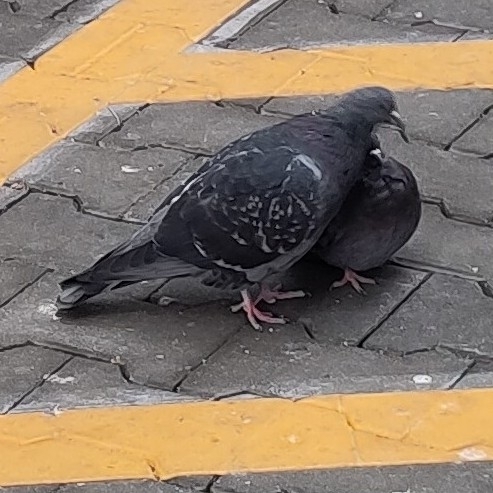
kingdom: Animalia
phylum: Chordata
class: Aves
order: Columbiformes
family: Columbidae
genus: Columba
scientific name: Columba livia
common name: Rock pigeon
